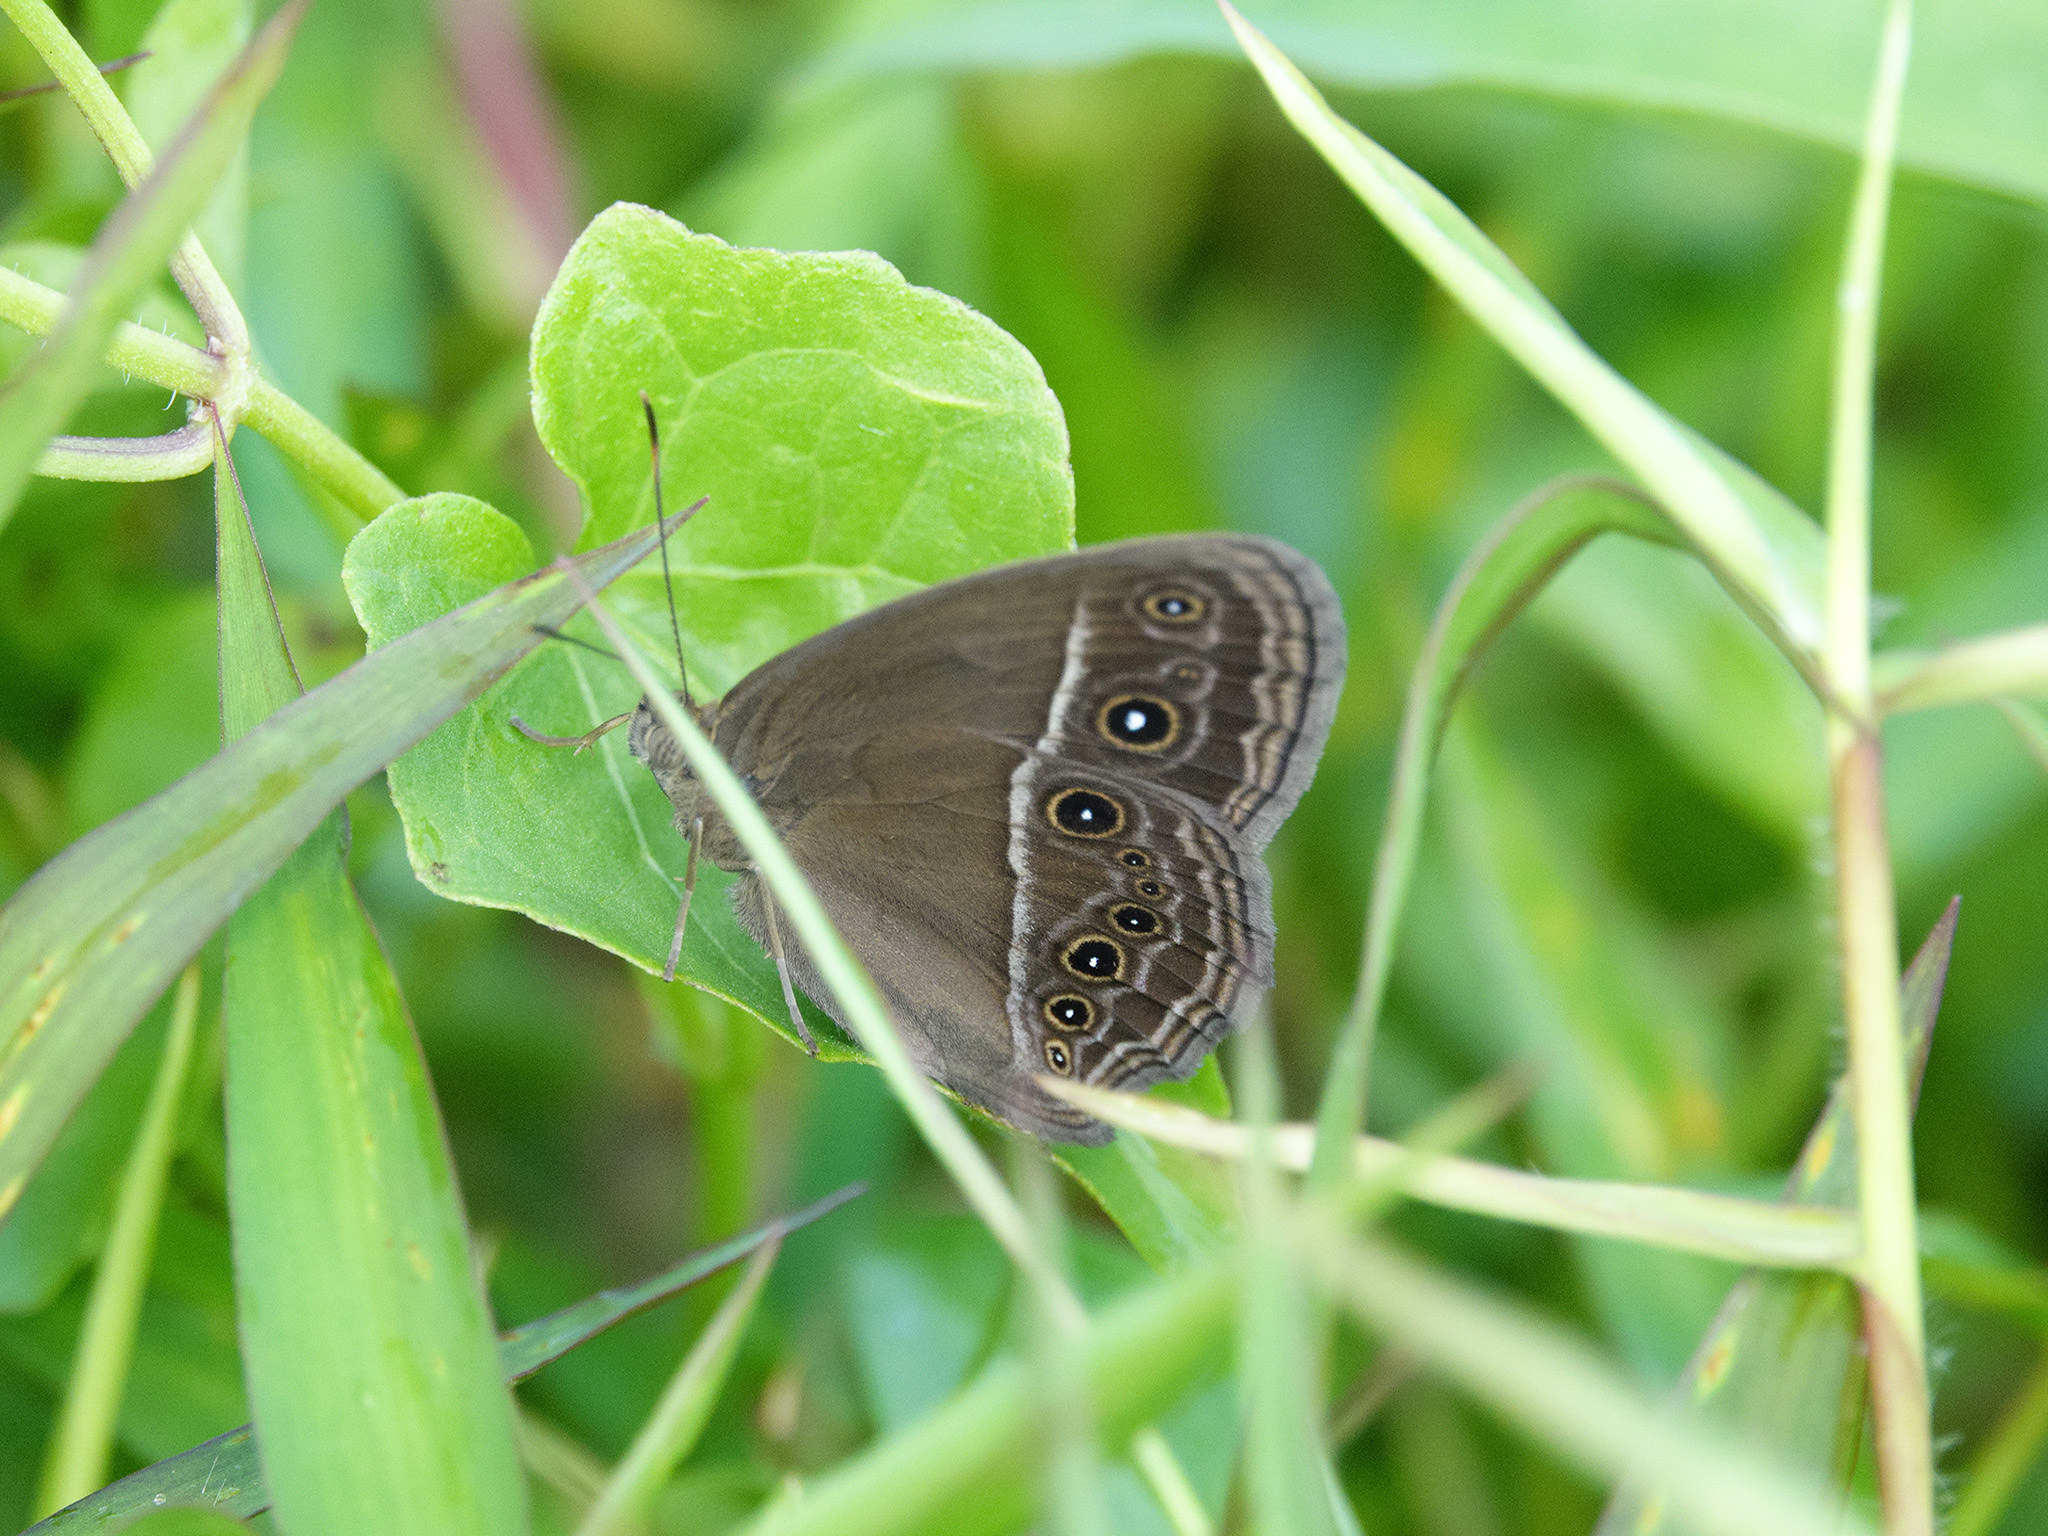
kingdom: Animalia
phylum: Arthropoda
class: Insecta
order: Lepidoptera
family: Nymphalidae
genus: Mycalesis
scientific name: Mycalesis mineus
